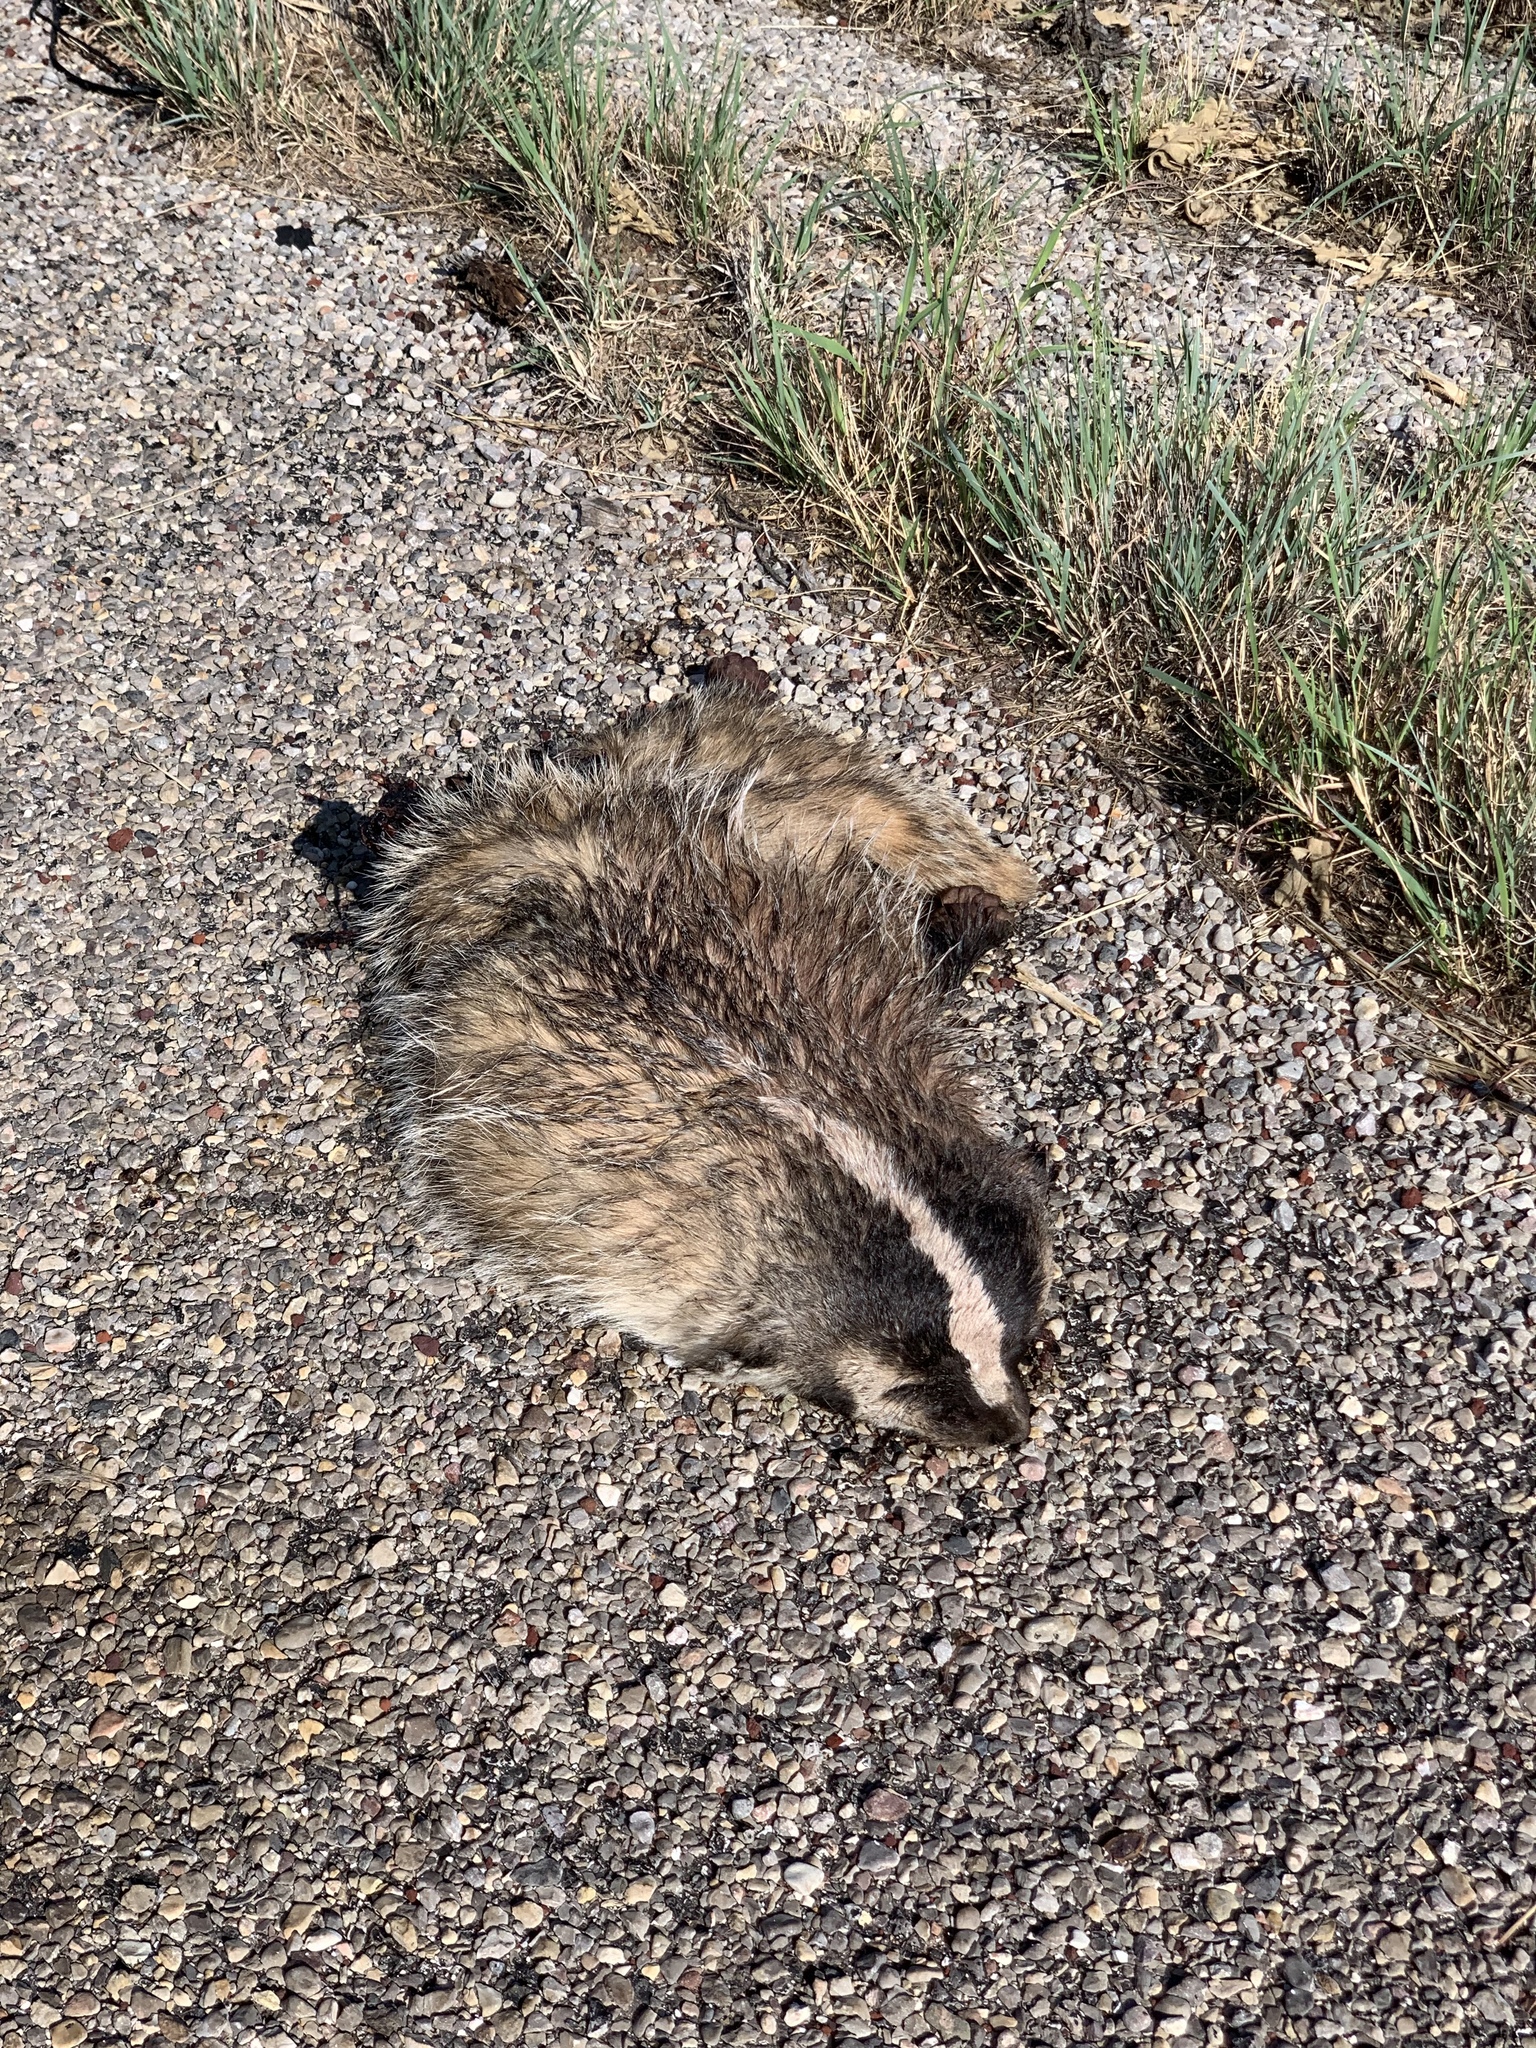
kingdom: Animalia
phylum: Chordata
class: Mammalia
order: Carnivora
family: Mustelidae
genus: Taxidea
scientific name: Taxidea taxus
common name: American badger
